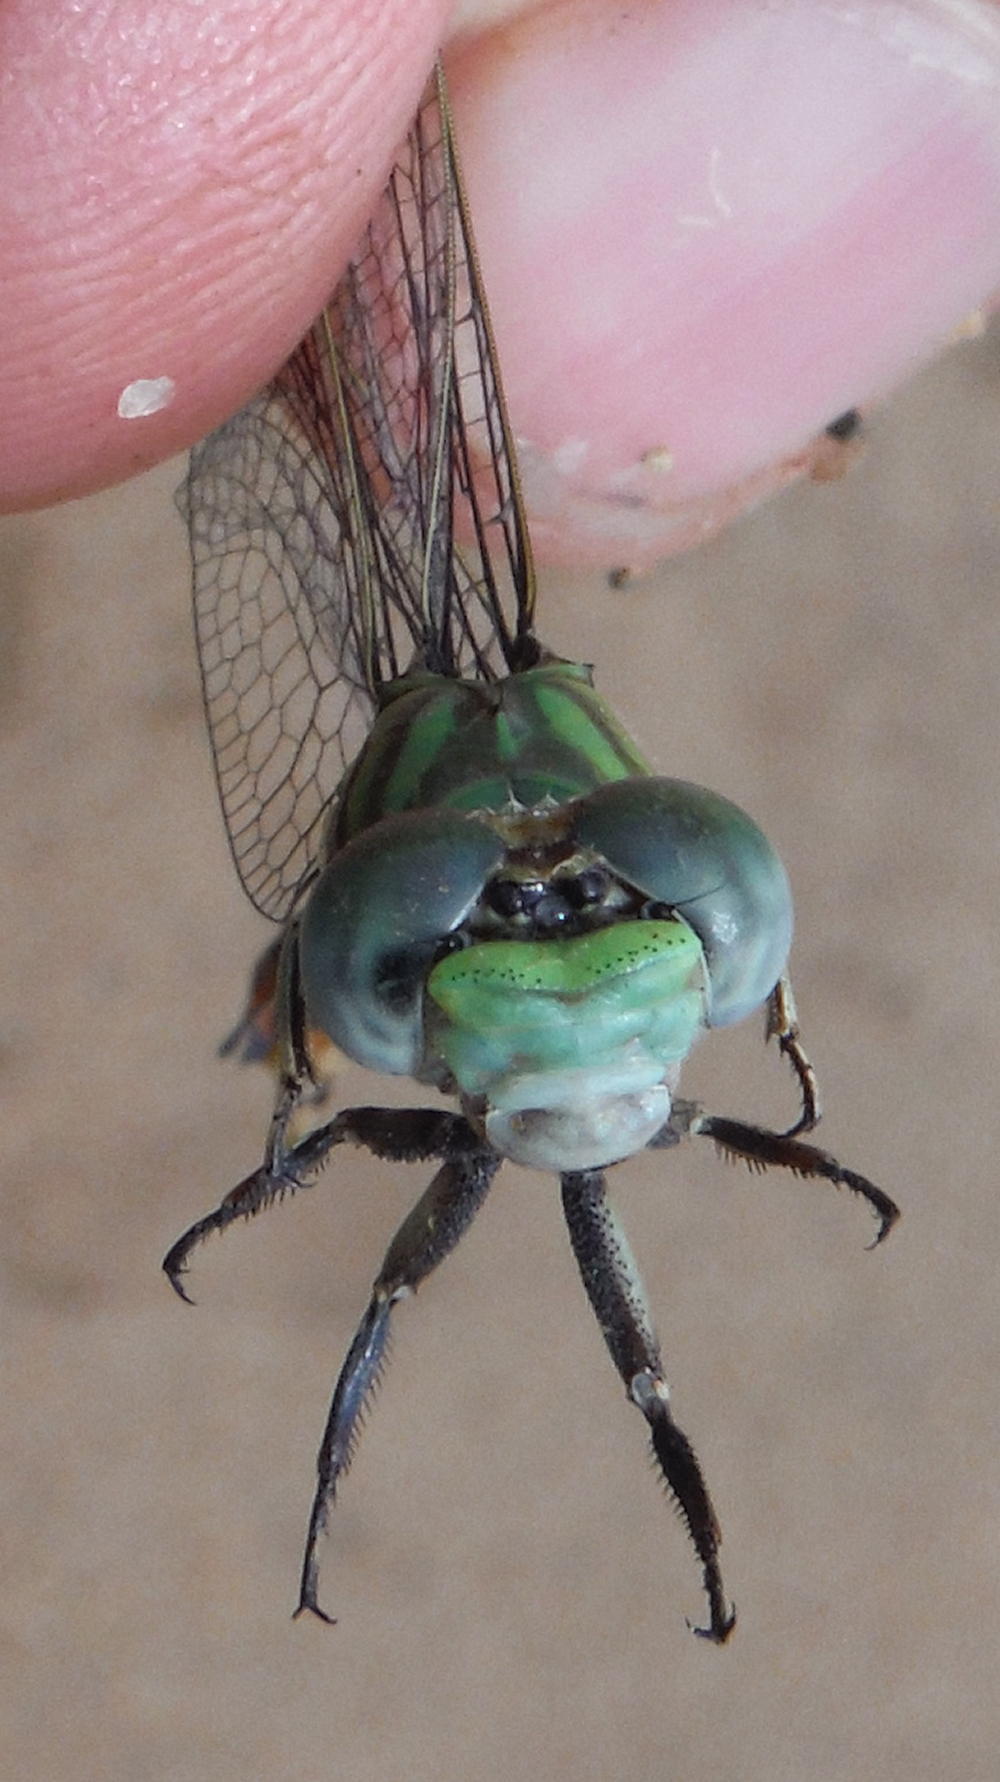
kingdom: Animalia
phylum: Arthropoda
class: Insecta
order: Odonata
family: Gomphidae
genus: Paragomphus
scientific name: Paragomphus genei
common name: Common hooktail
